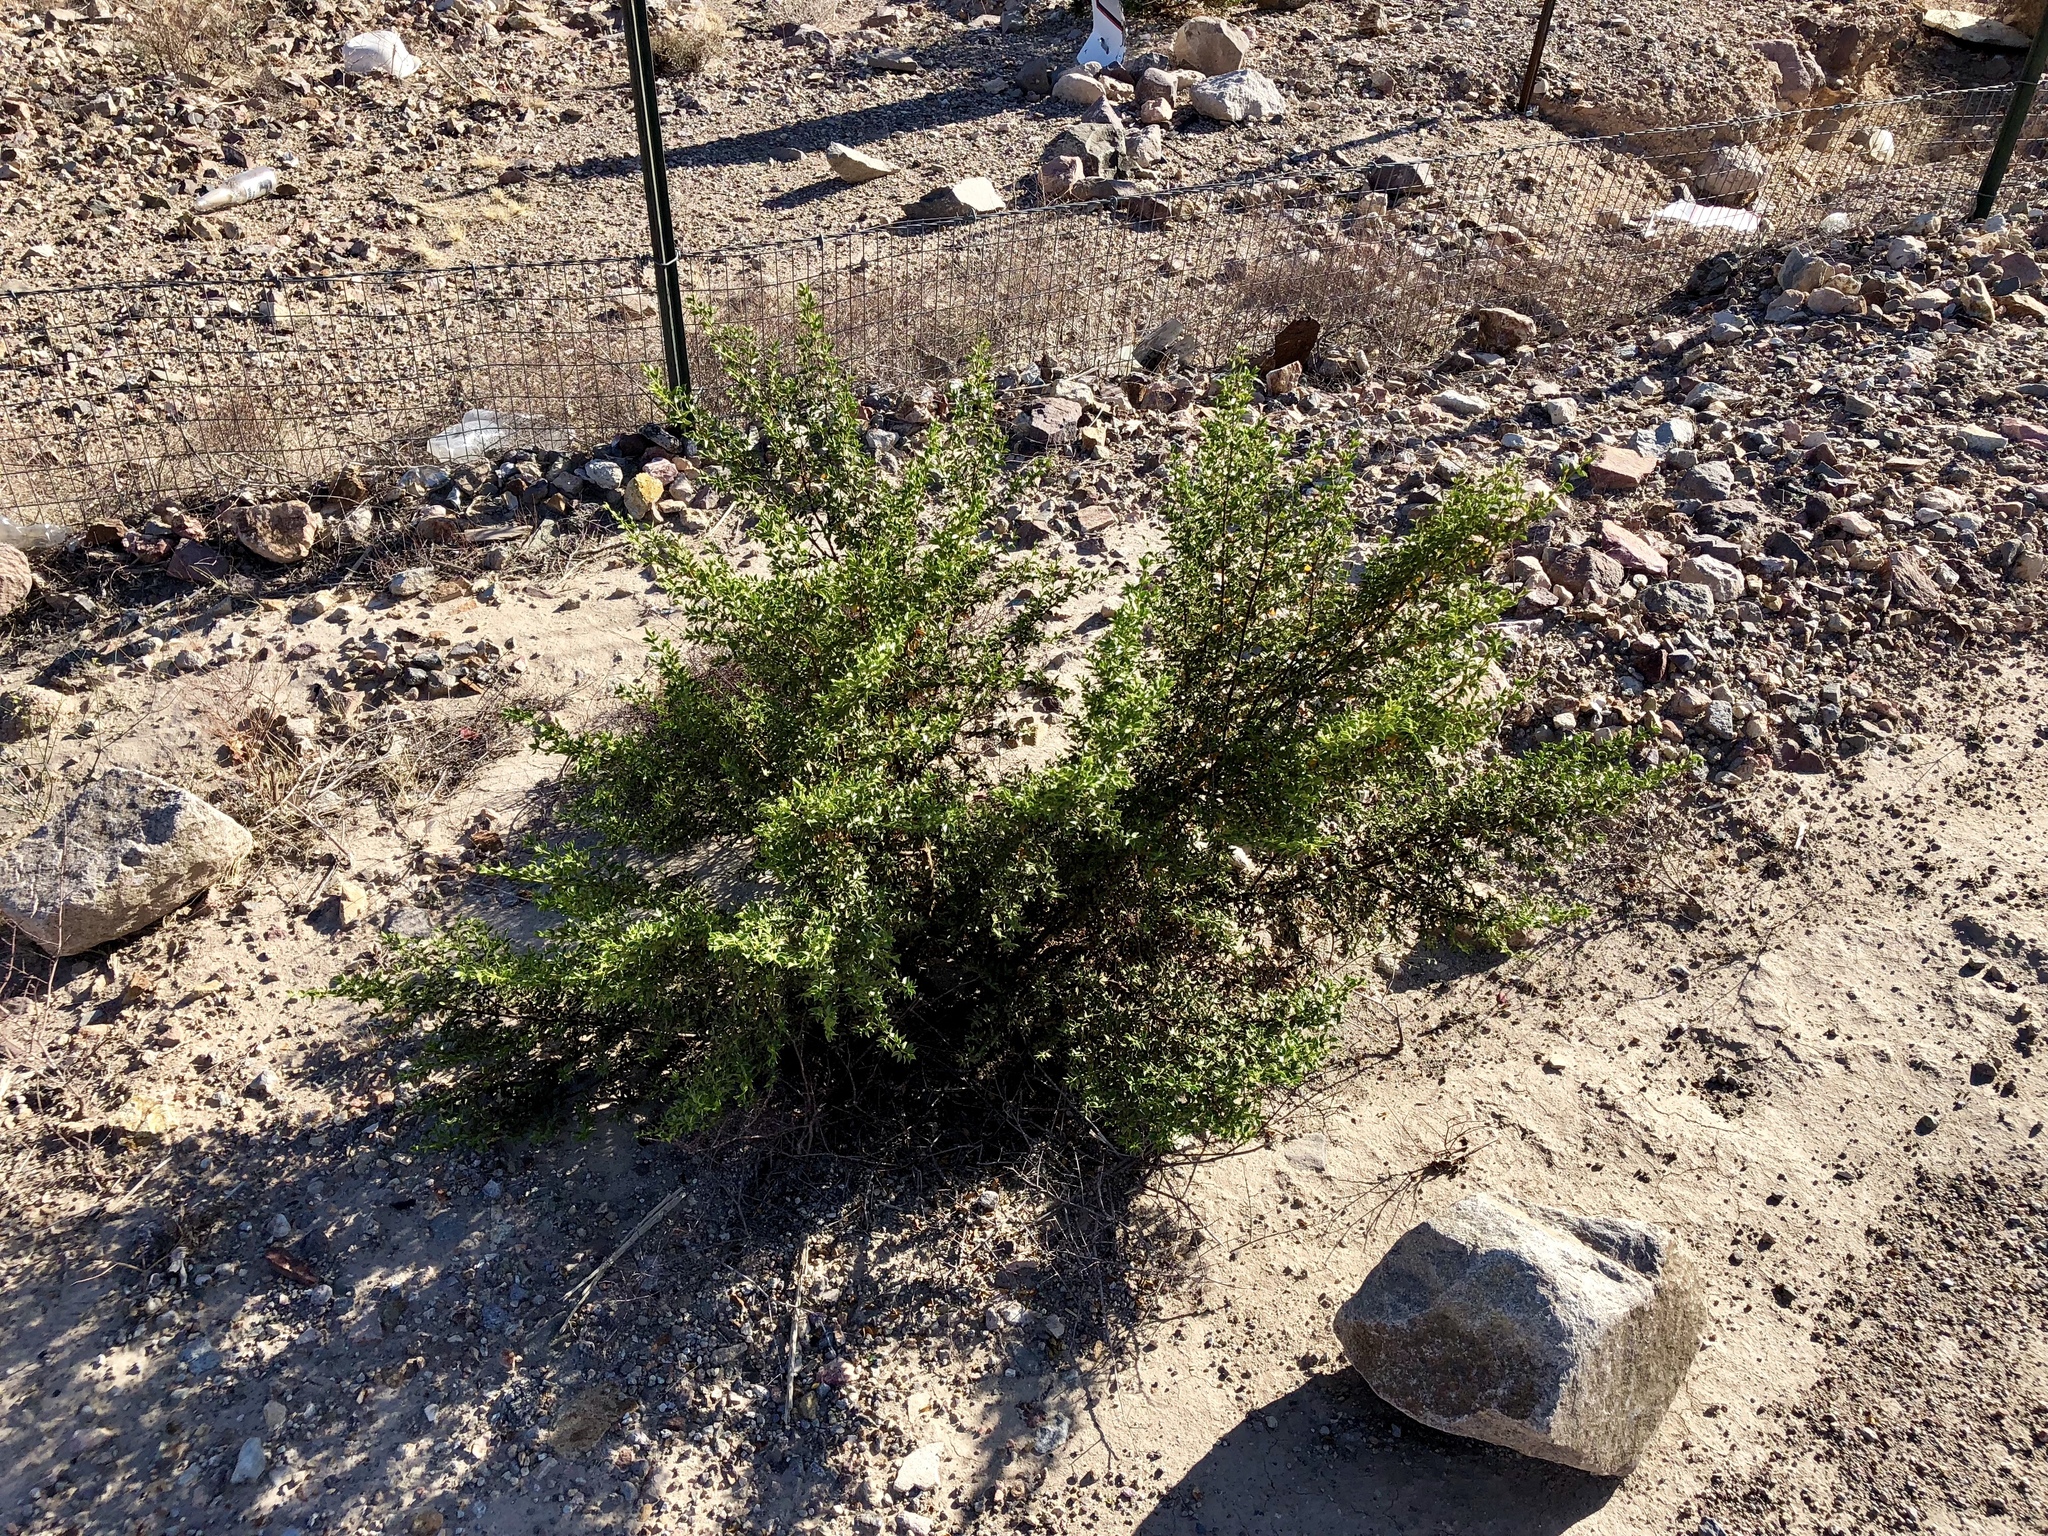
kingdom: Plantae
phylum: Tracheophyta
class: Magnoliopsida
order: Zygophyllales
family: Zygophyllaceae
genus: Larrea
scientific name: Larrea tridentata
